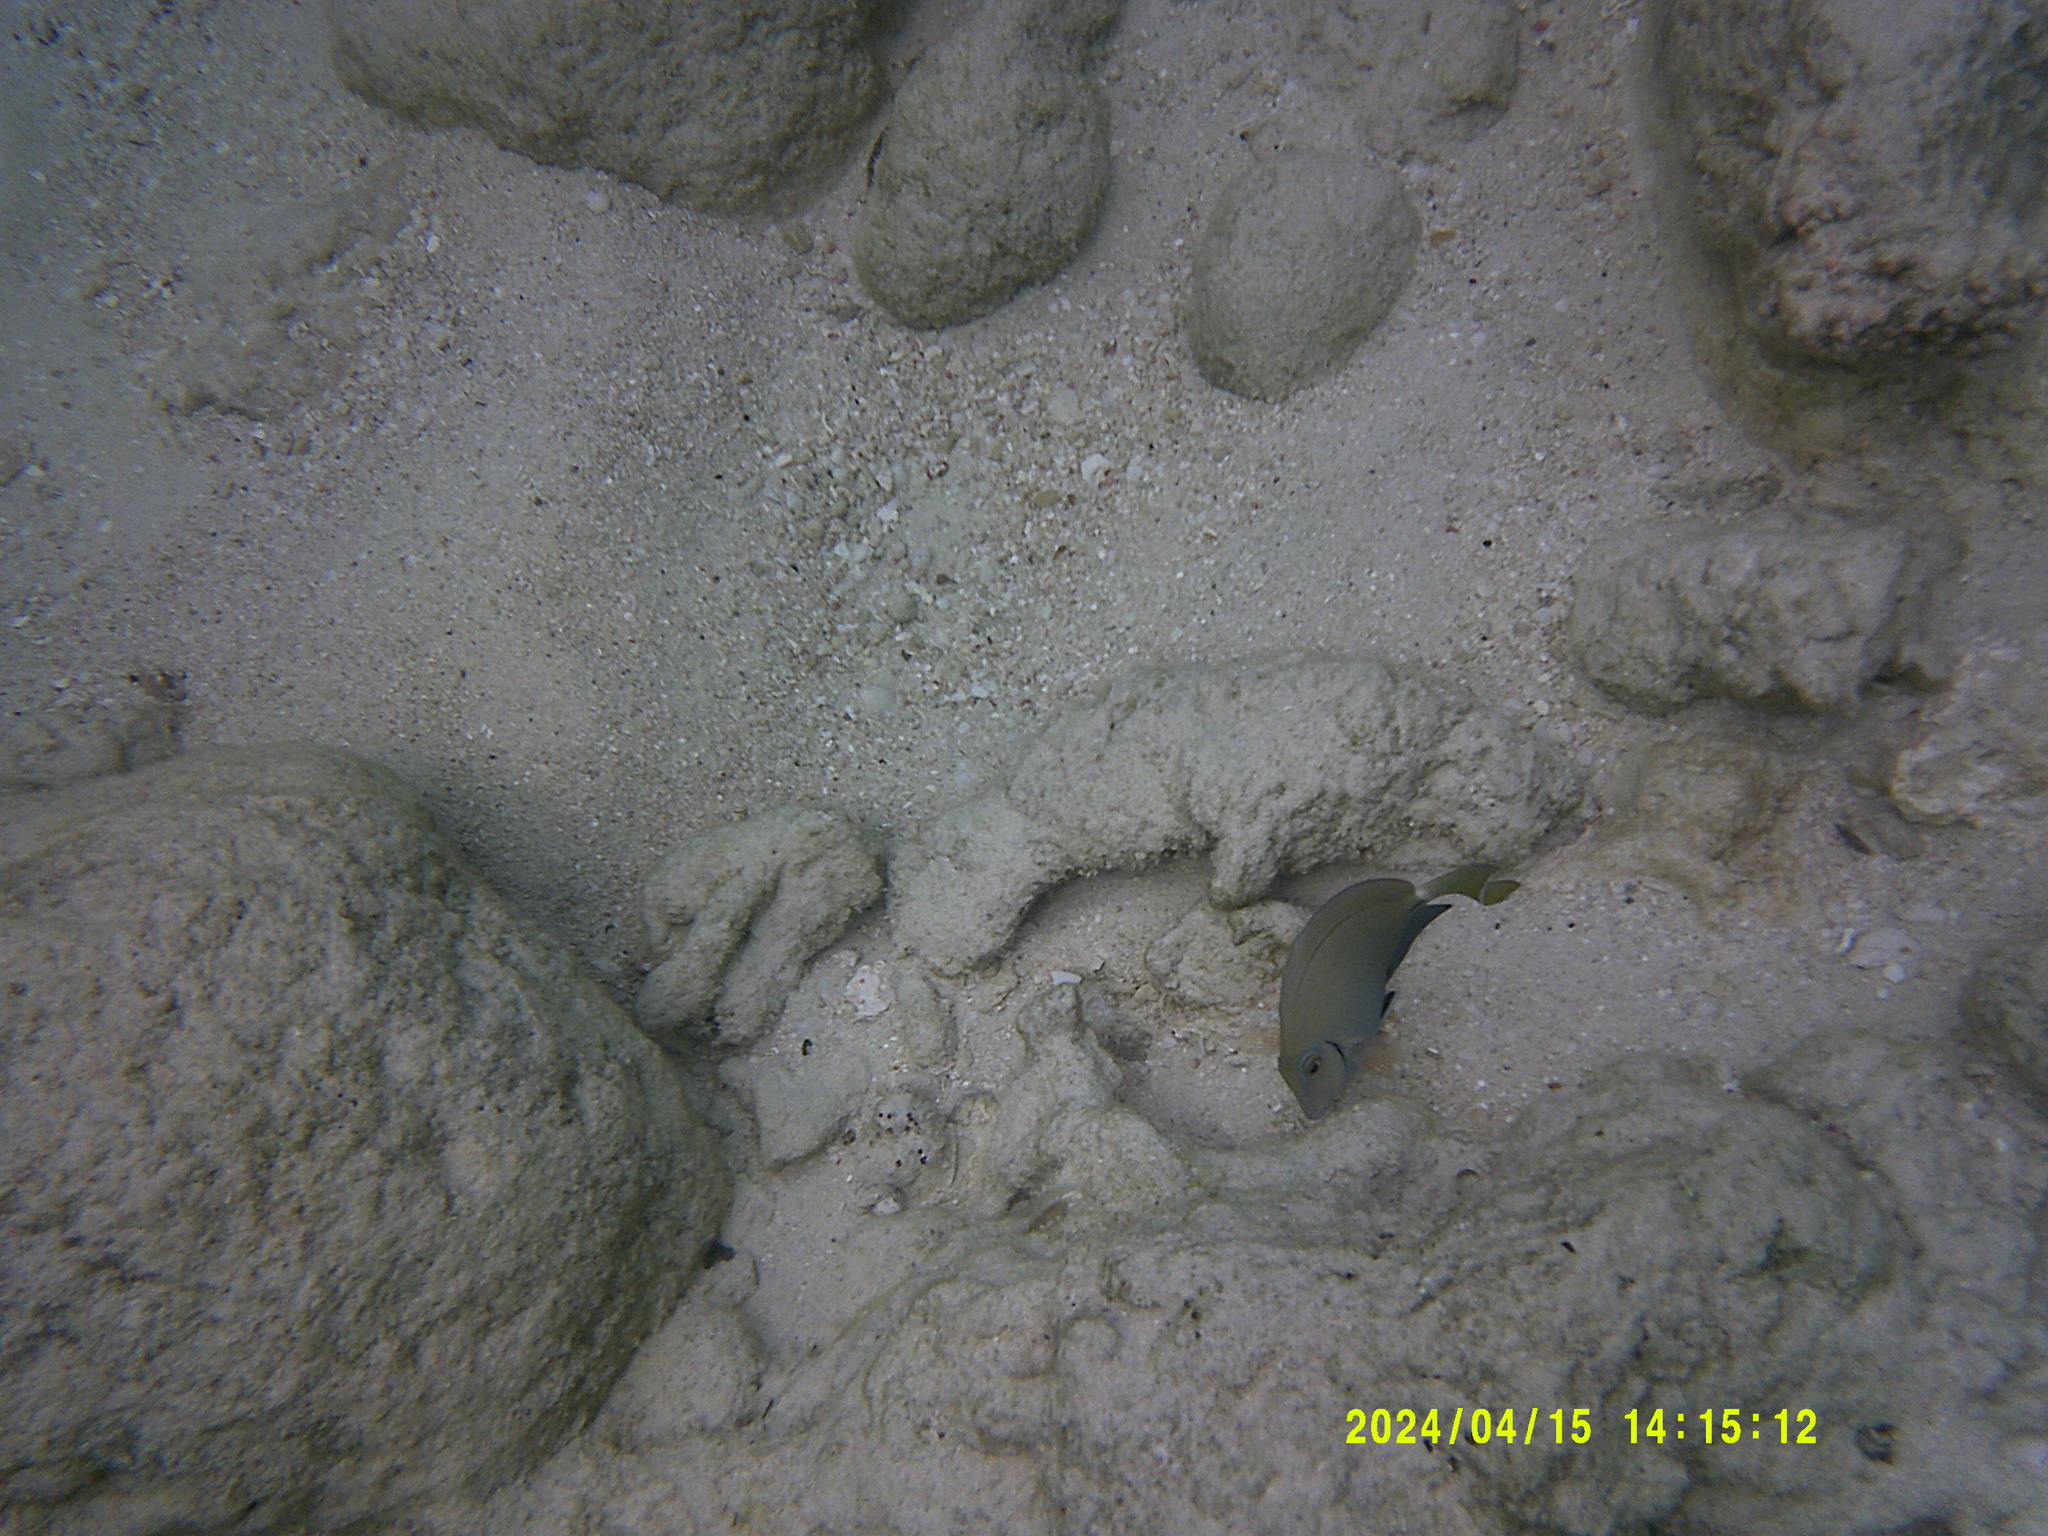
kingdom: Animalia
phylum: Chordata
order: Perciformes
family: Acanthuridae
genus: Acanthurus
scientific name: Acanthurus bahianus
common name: Ocean surgeon
